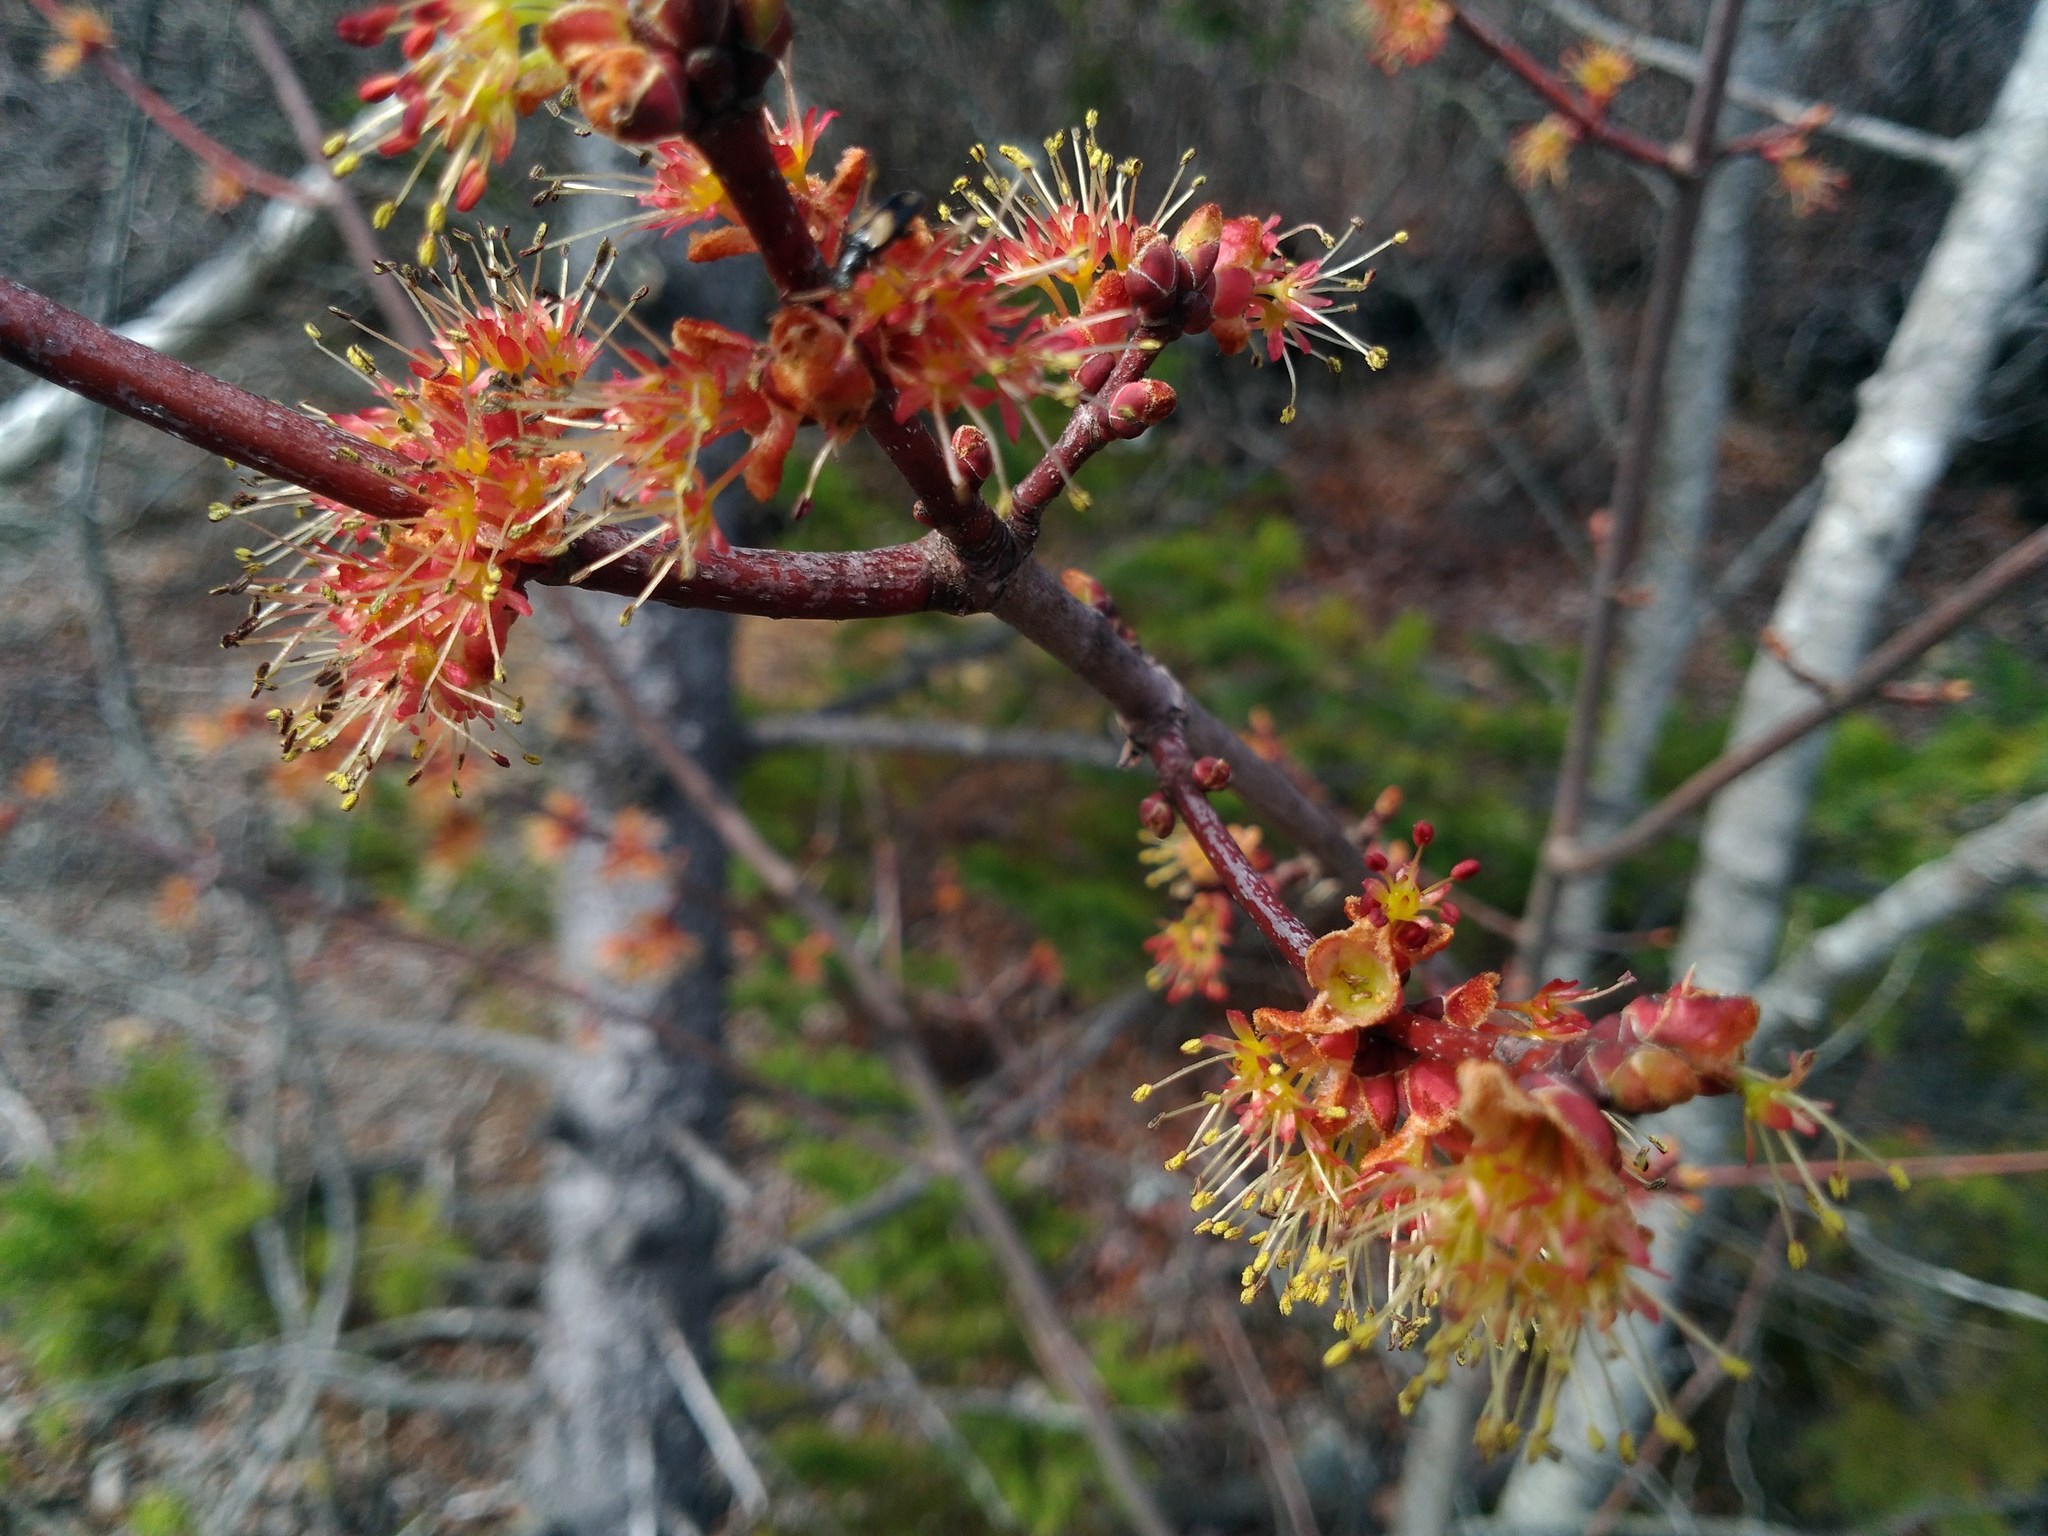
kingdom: Plantae
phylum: Tracheophyta
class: Magnoliopsida
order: Sapindales
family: Sapindaceae
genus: Acer
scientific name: Acer rubrum
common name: Red maple
